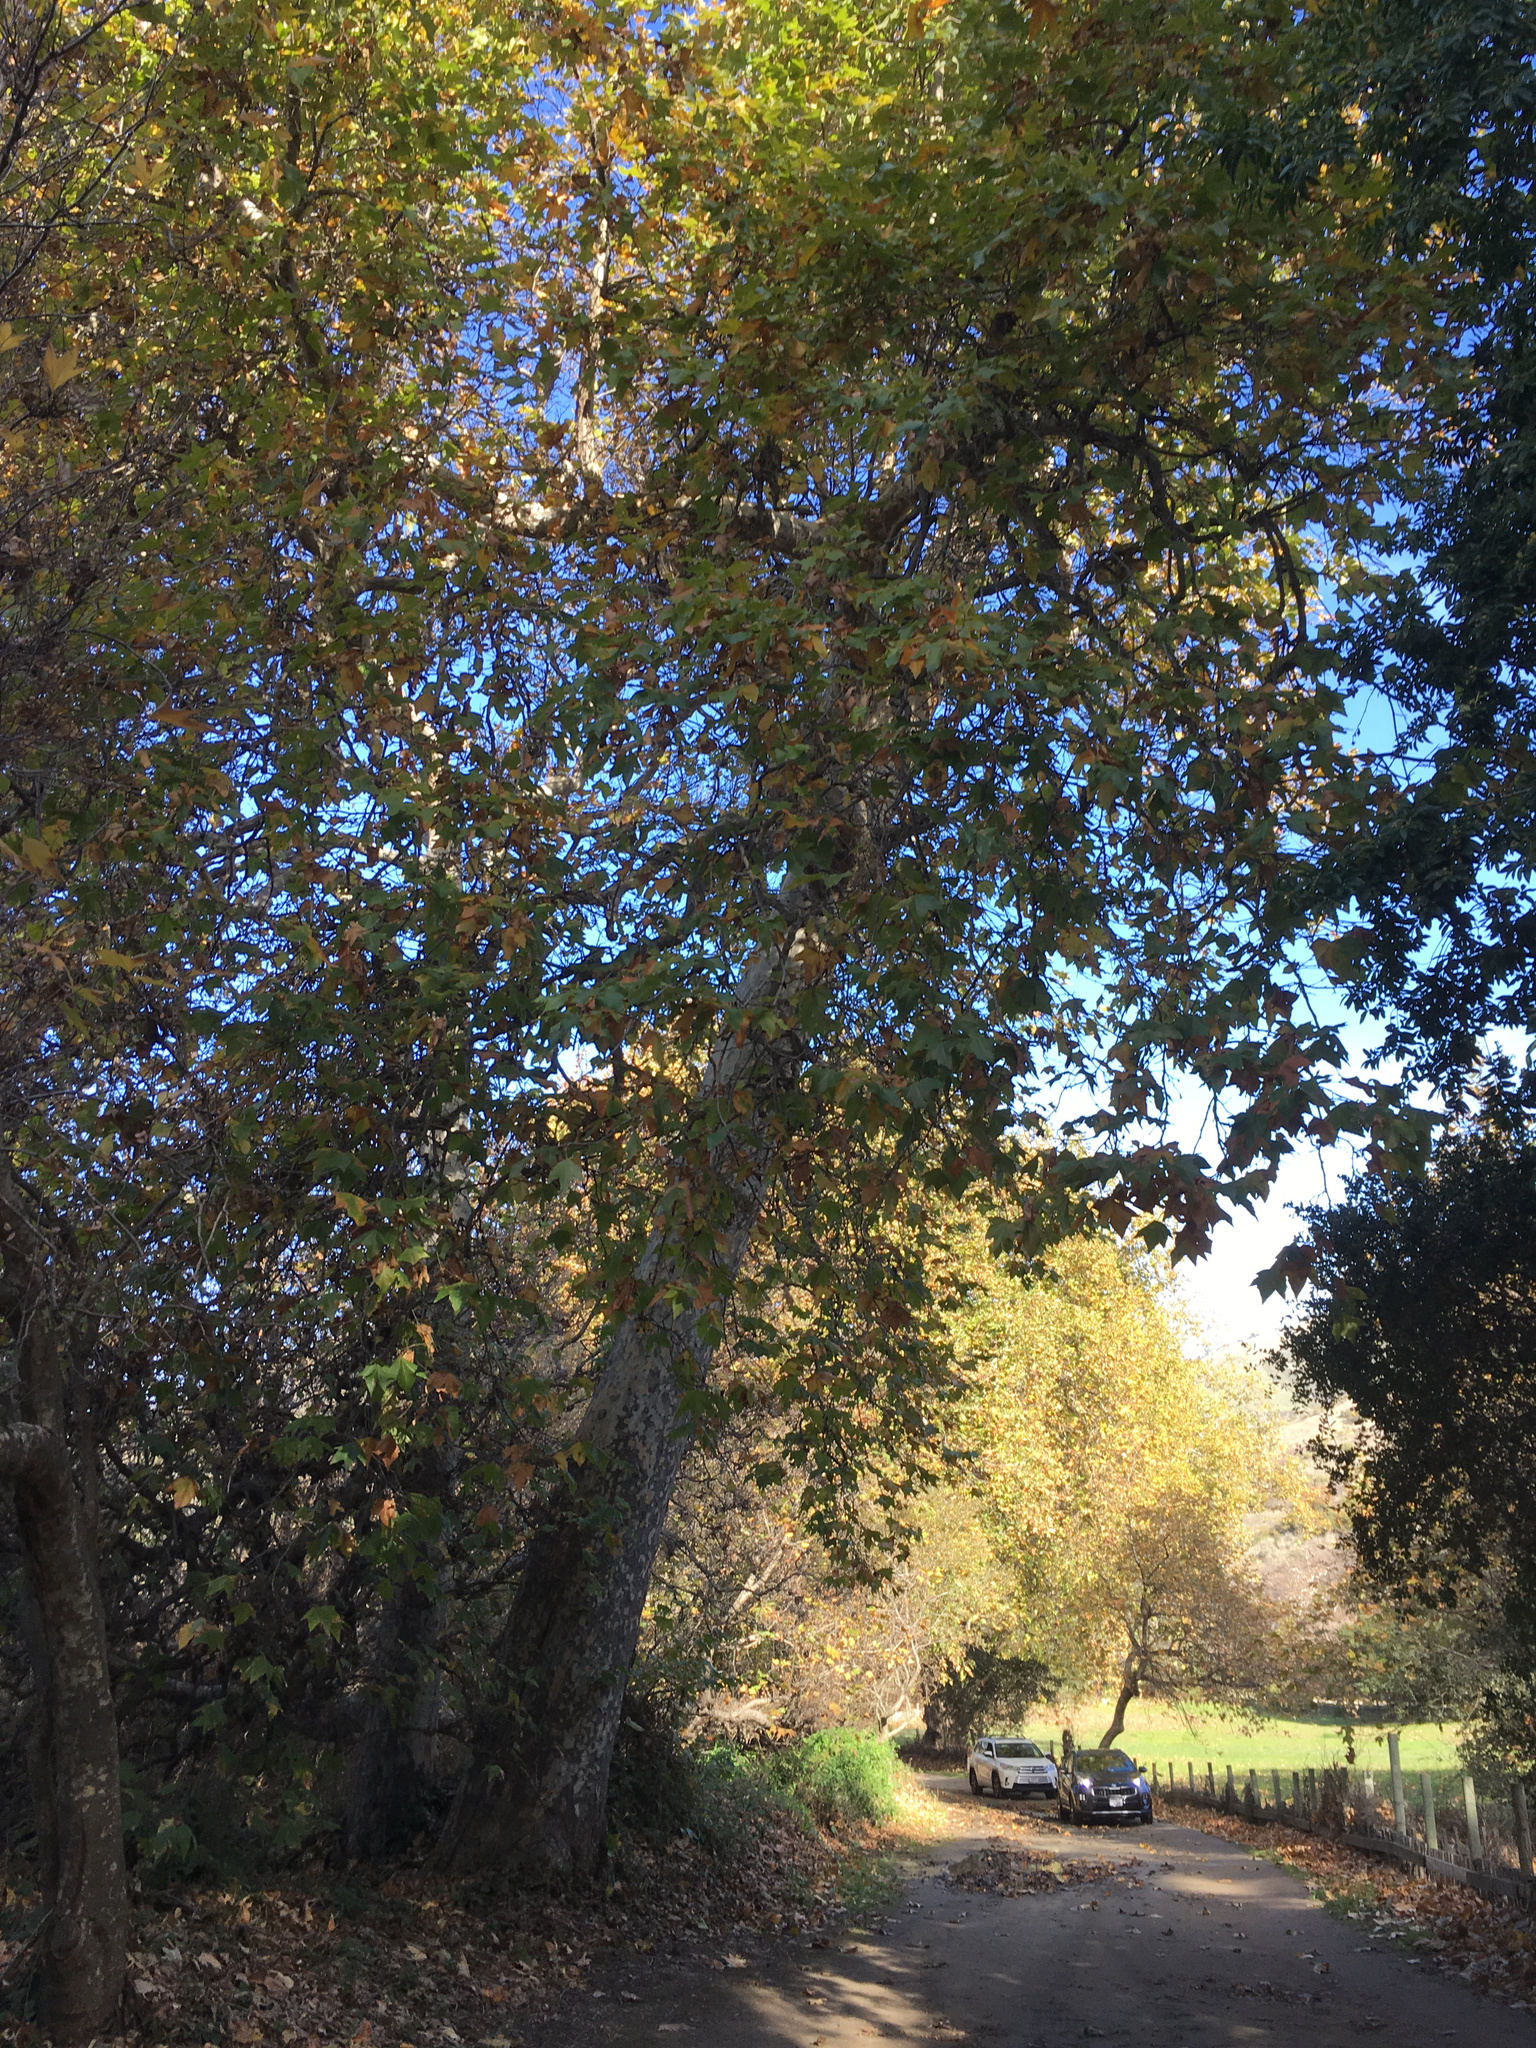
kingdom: Plantae
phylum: Tracheophyta
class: Magnoliopsida
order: Proteales
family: Platanaceae
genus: Platanus
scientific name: Platanus racemosa
